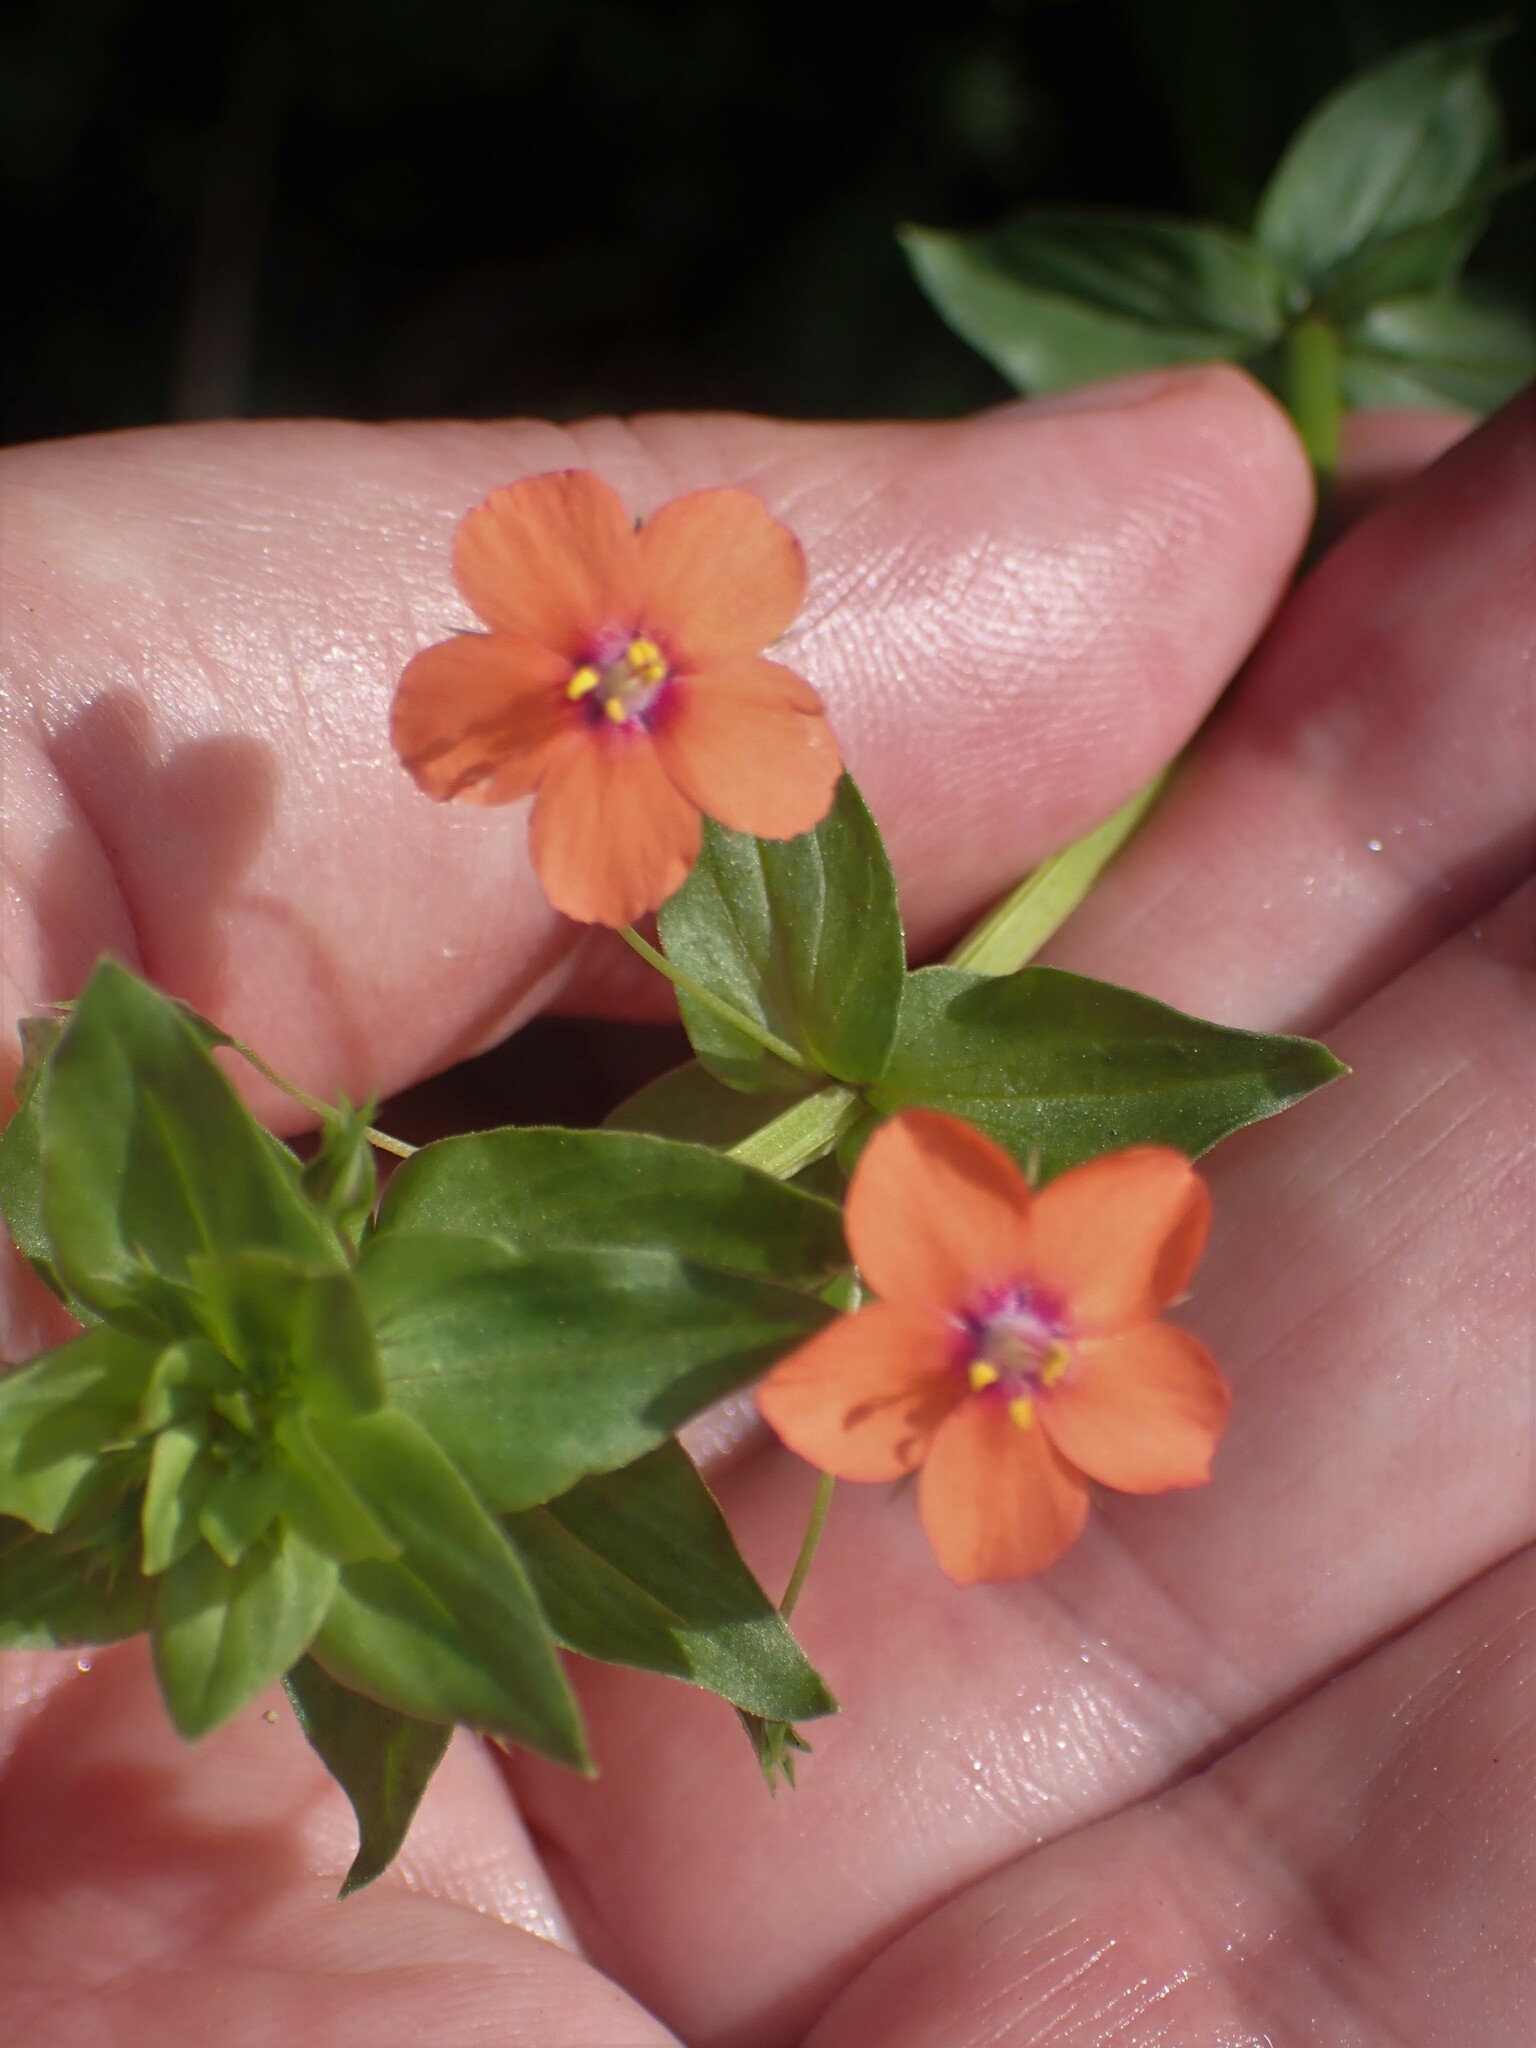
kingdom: Plantae
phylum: Tracheophyta
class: Magnoliopsida
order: Ericales
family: Primulaceae
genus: Lysimachia
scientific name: Lysimachia arvensis
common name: Scarlet pimpernel
